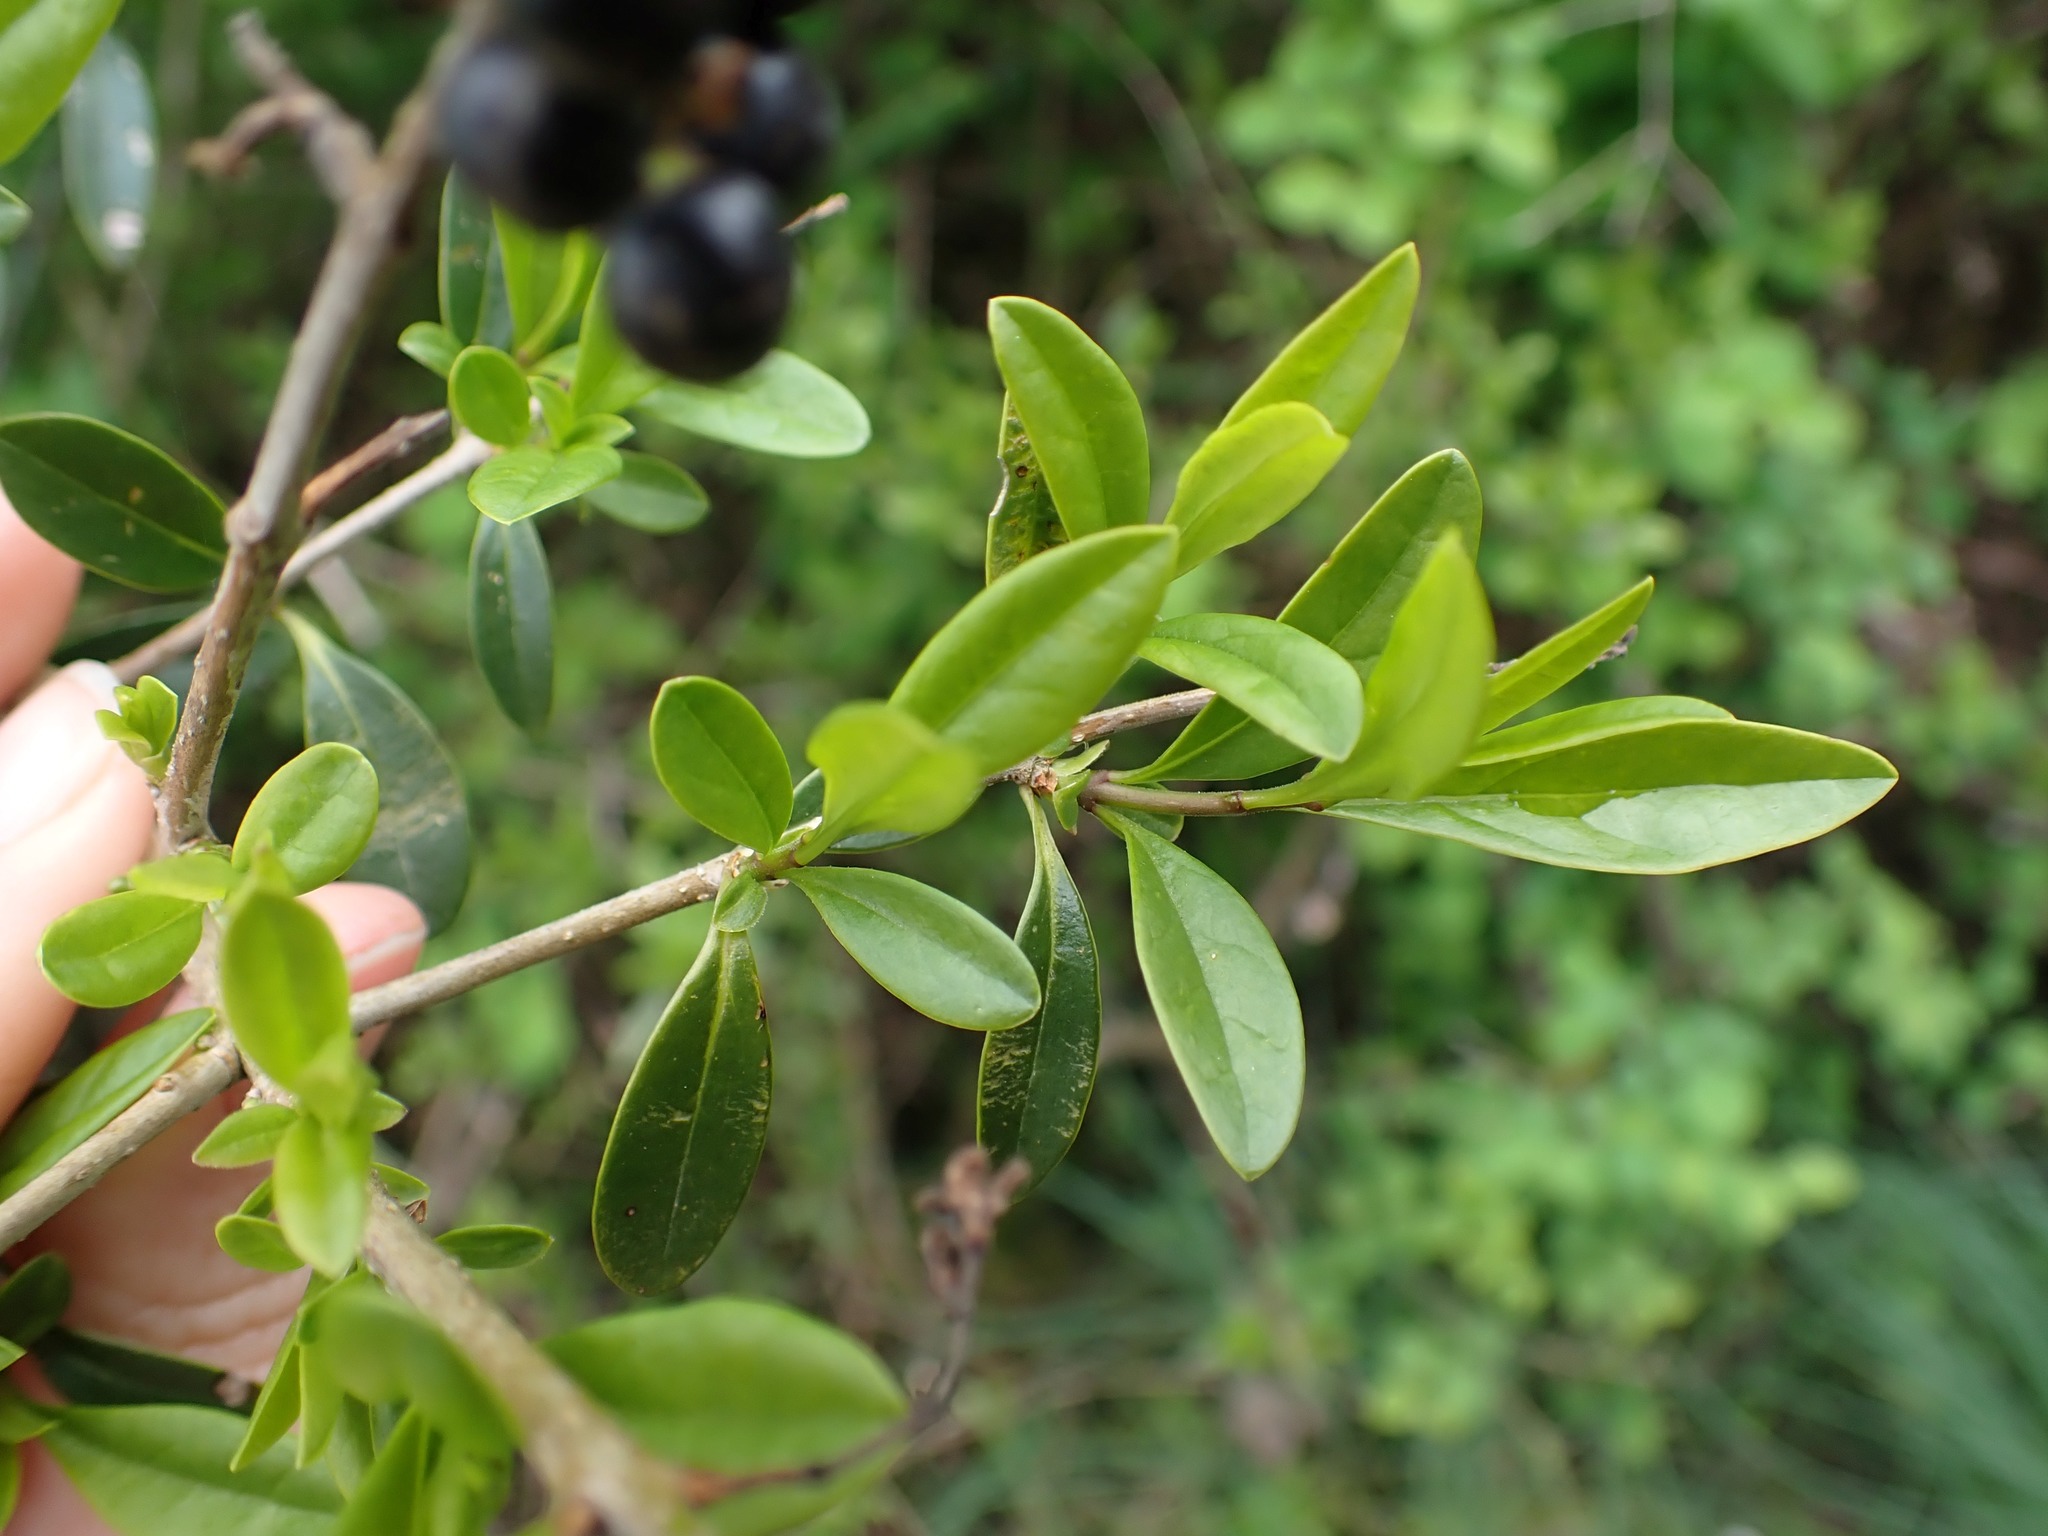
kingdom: Plantae
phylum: Tracheophyta
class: Magnoliopsida
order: Lamiales
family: Oleaceae
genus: Ligustrum
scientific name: Ligustrum vulgare
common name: Wild privet
